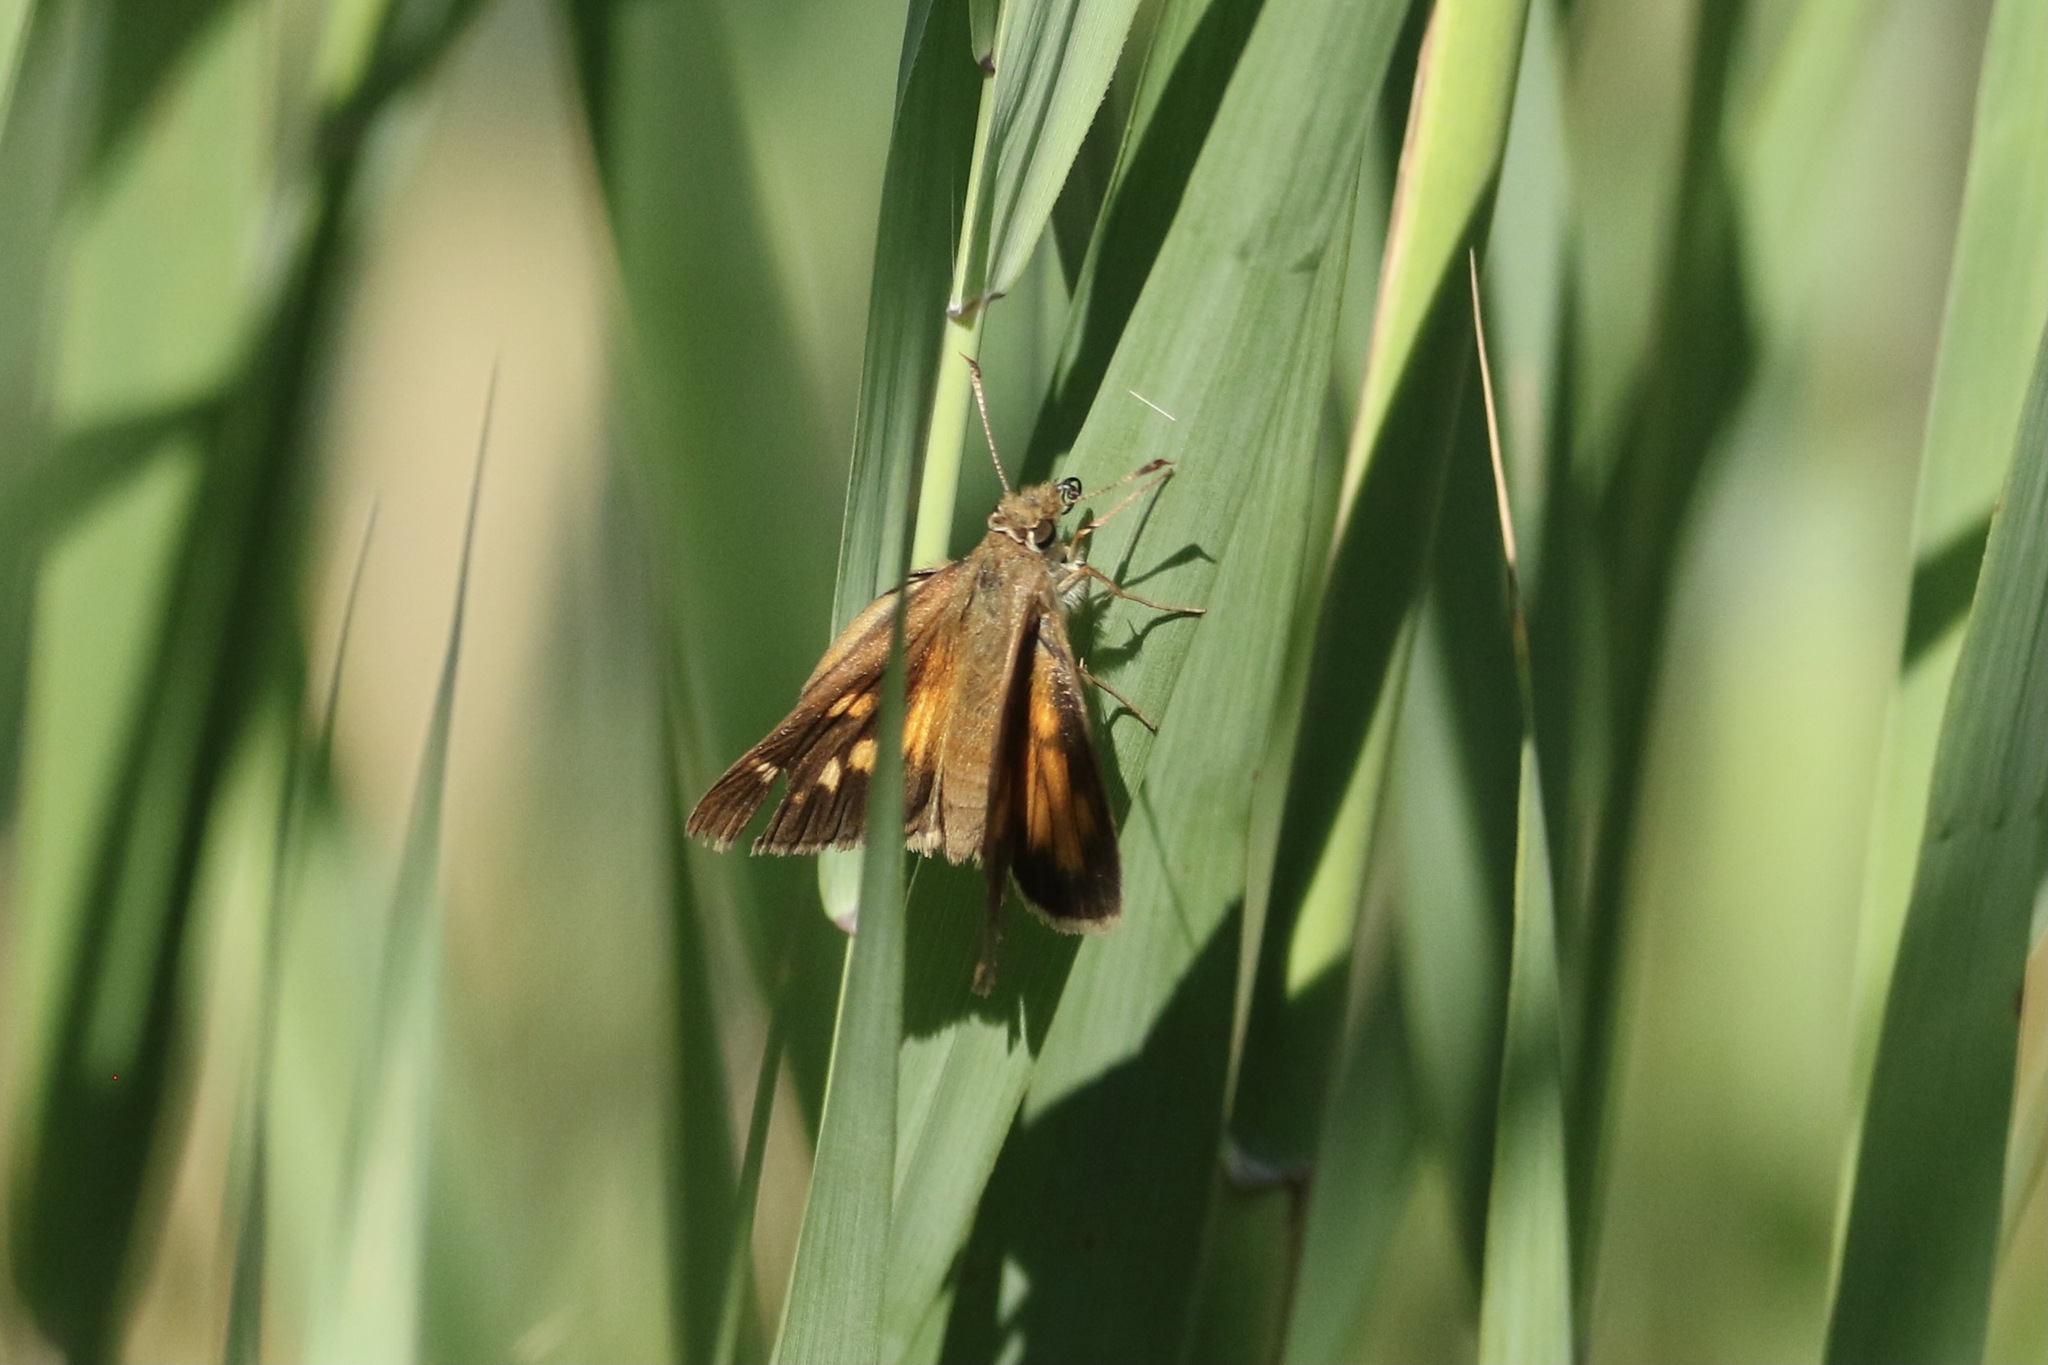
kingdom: Animalia
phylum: Arthropoda
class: Insecta
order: Lepidoptera
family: Hesperiidae
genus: Poanes
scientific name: Poanes viator
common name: Broad-winged skipper
